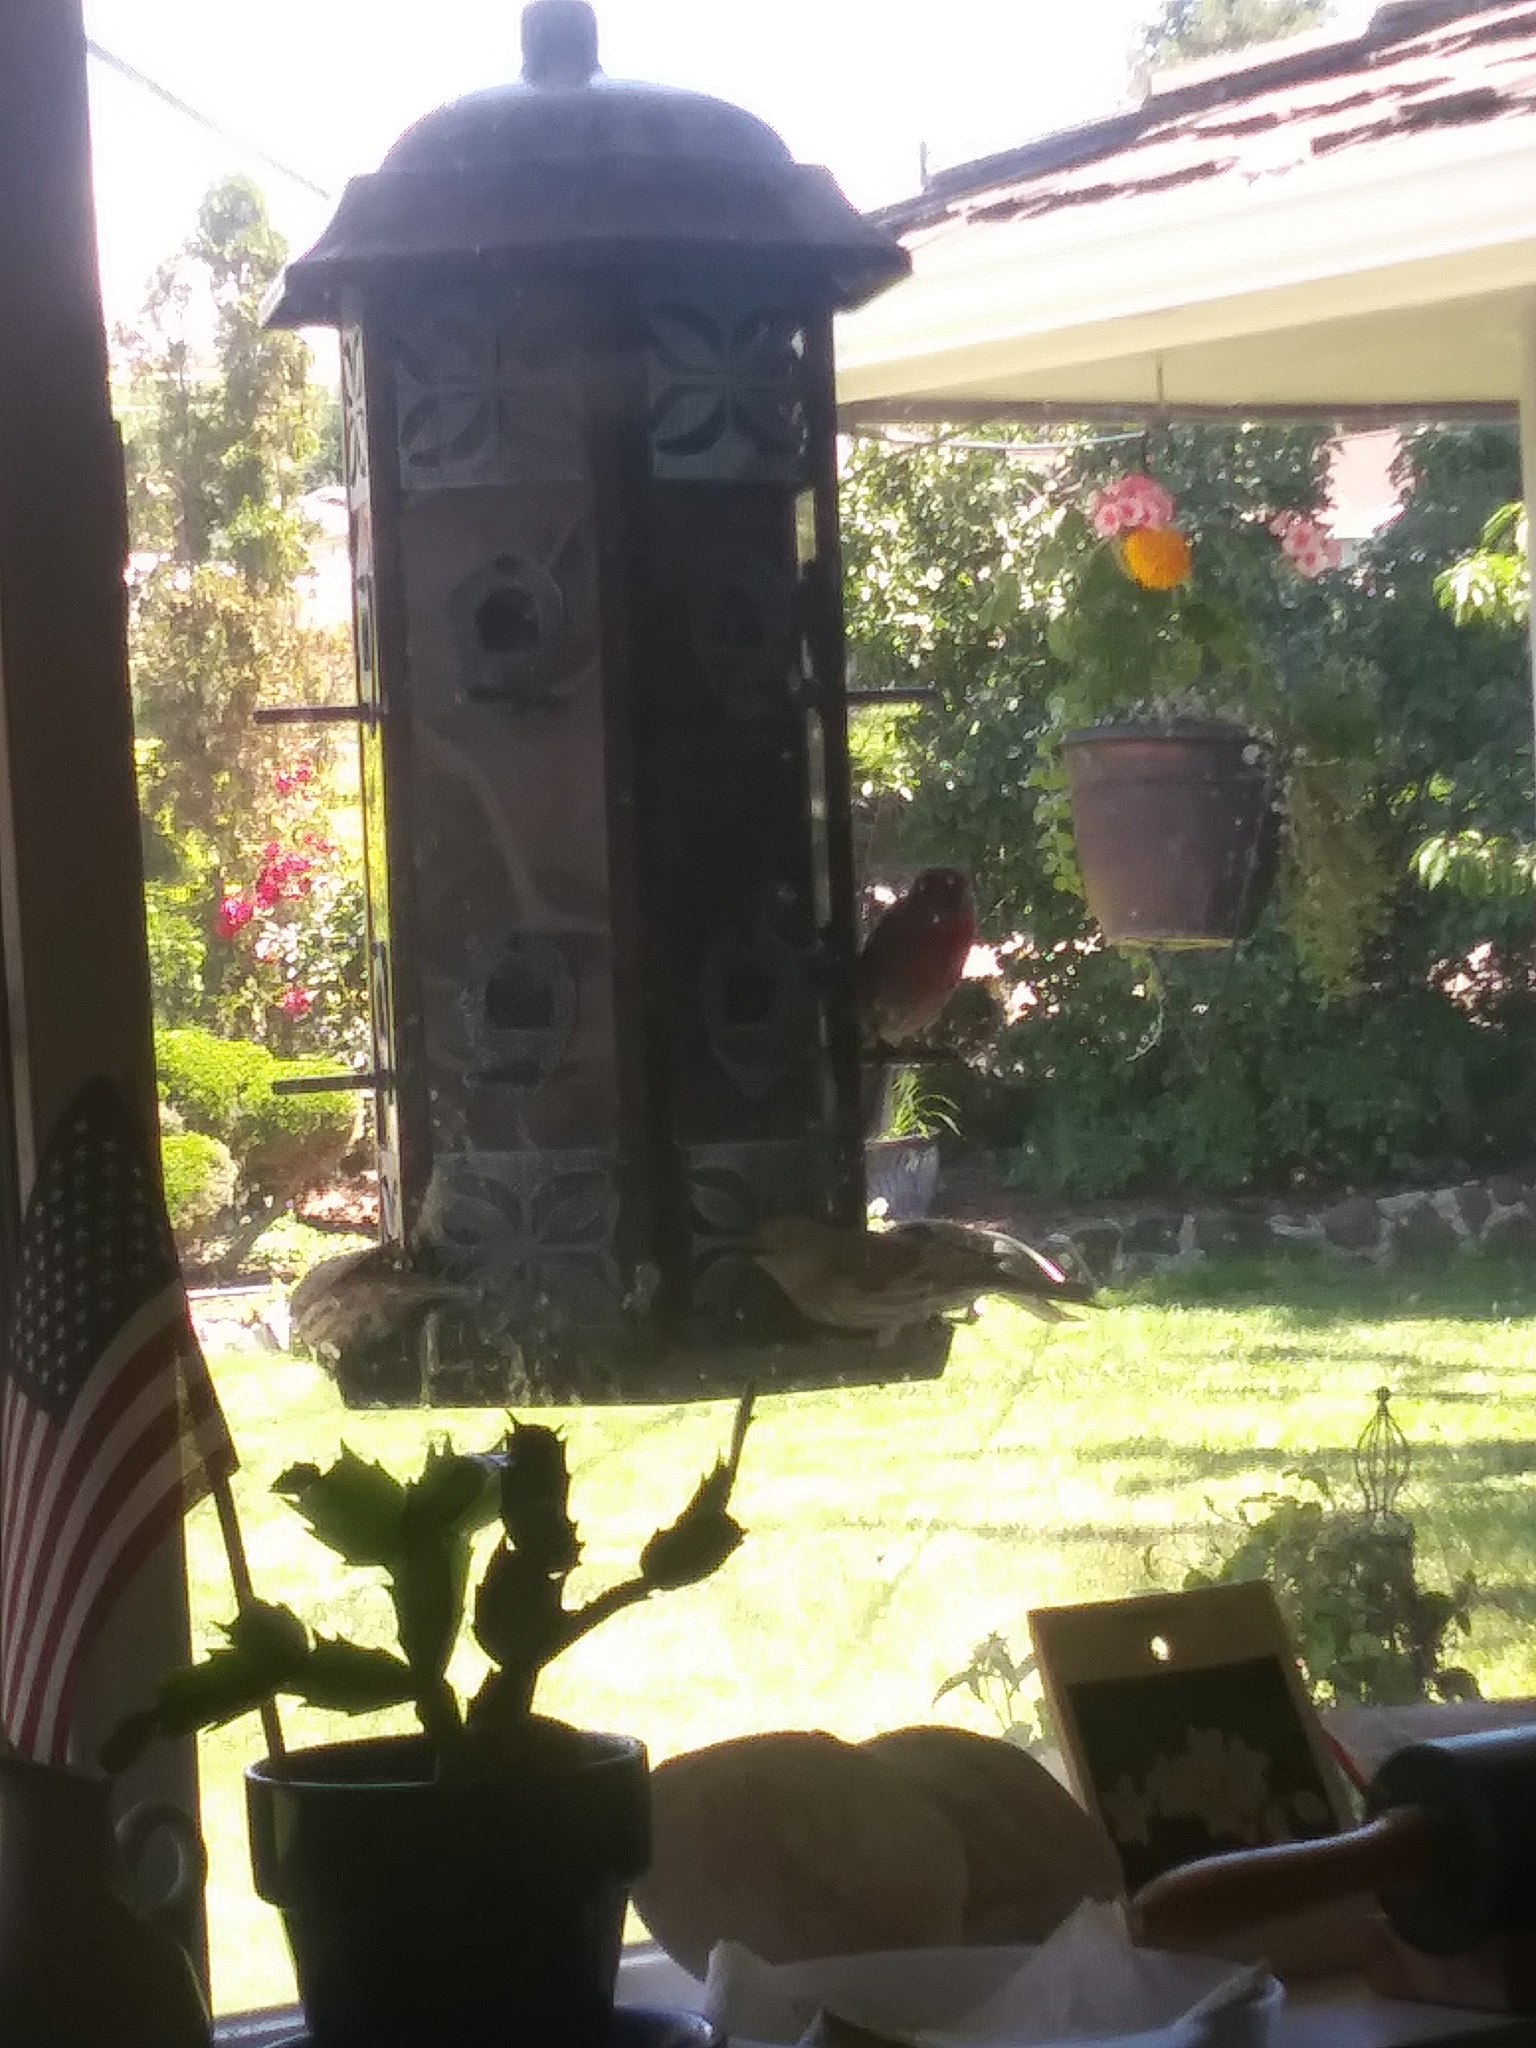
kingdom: Animalia
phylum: Chordata
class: Aves
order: Passeriformes
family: Fringillidae
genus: Haemorhous
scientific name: Haemorhous mexicanus
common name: House finch
